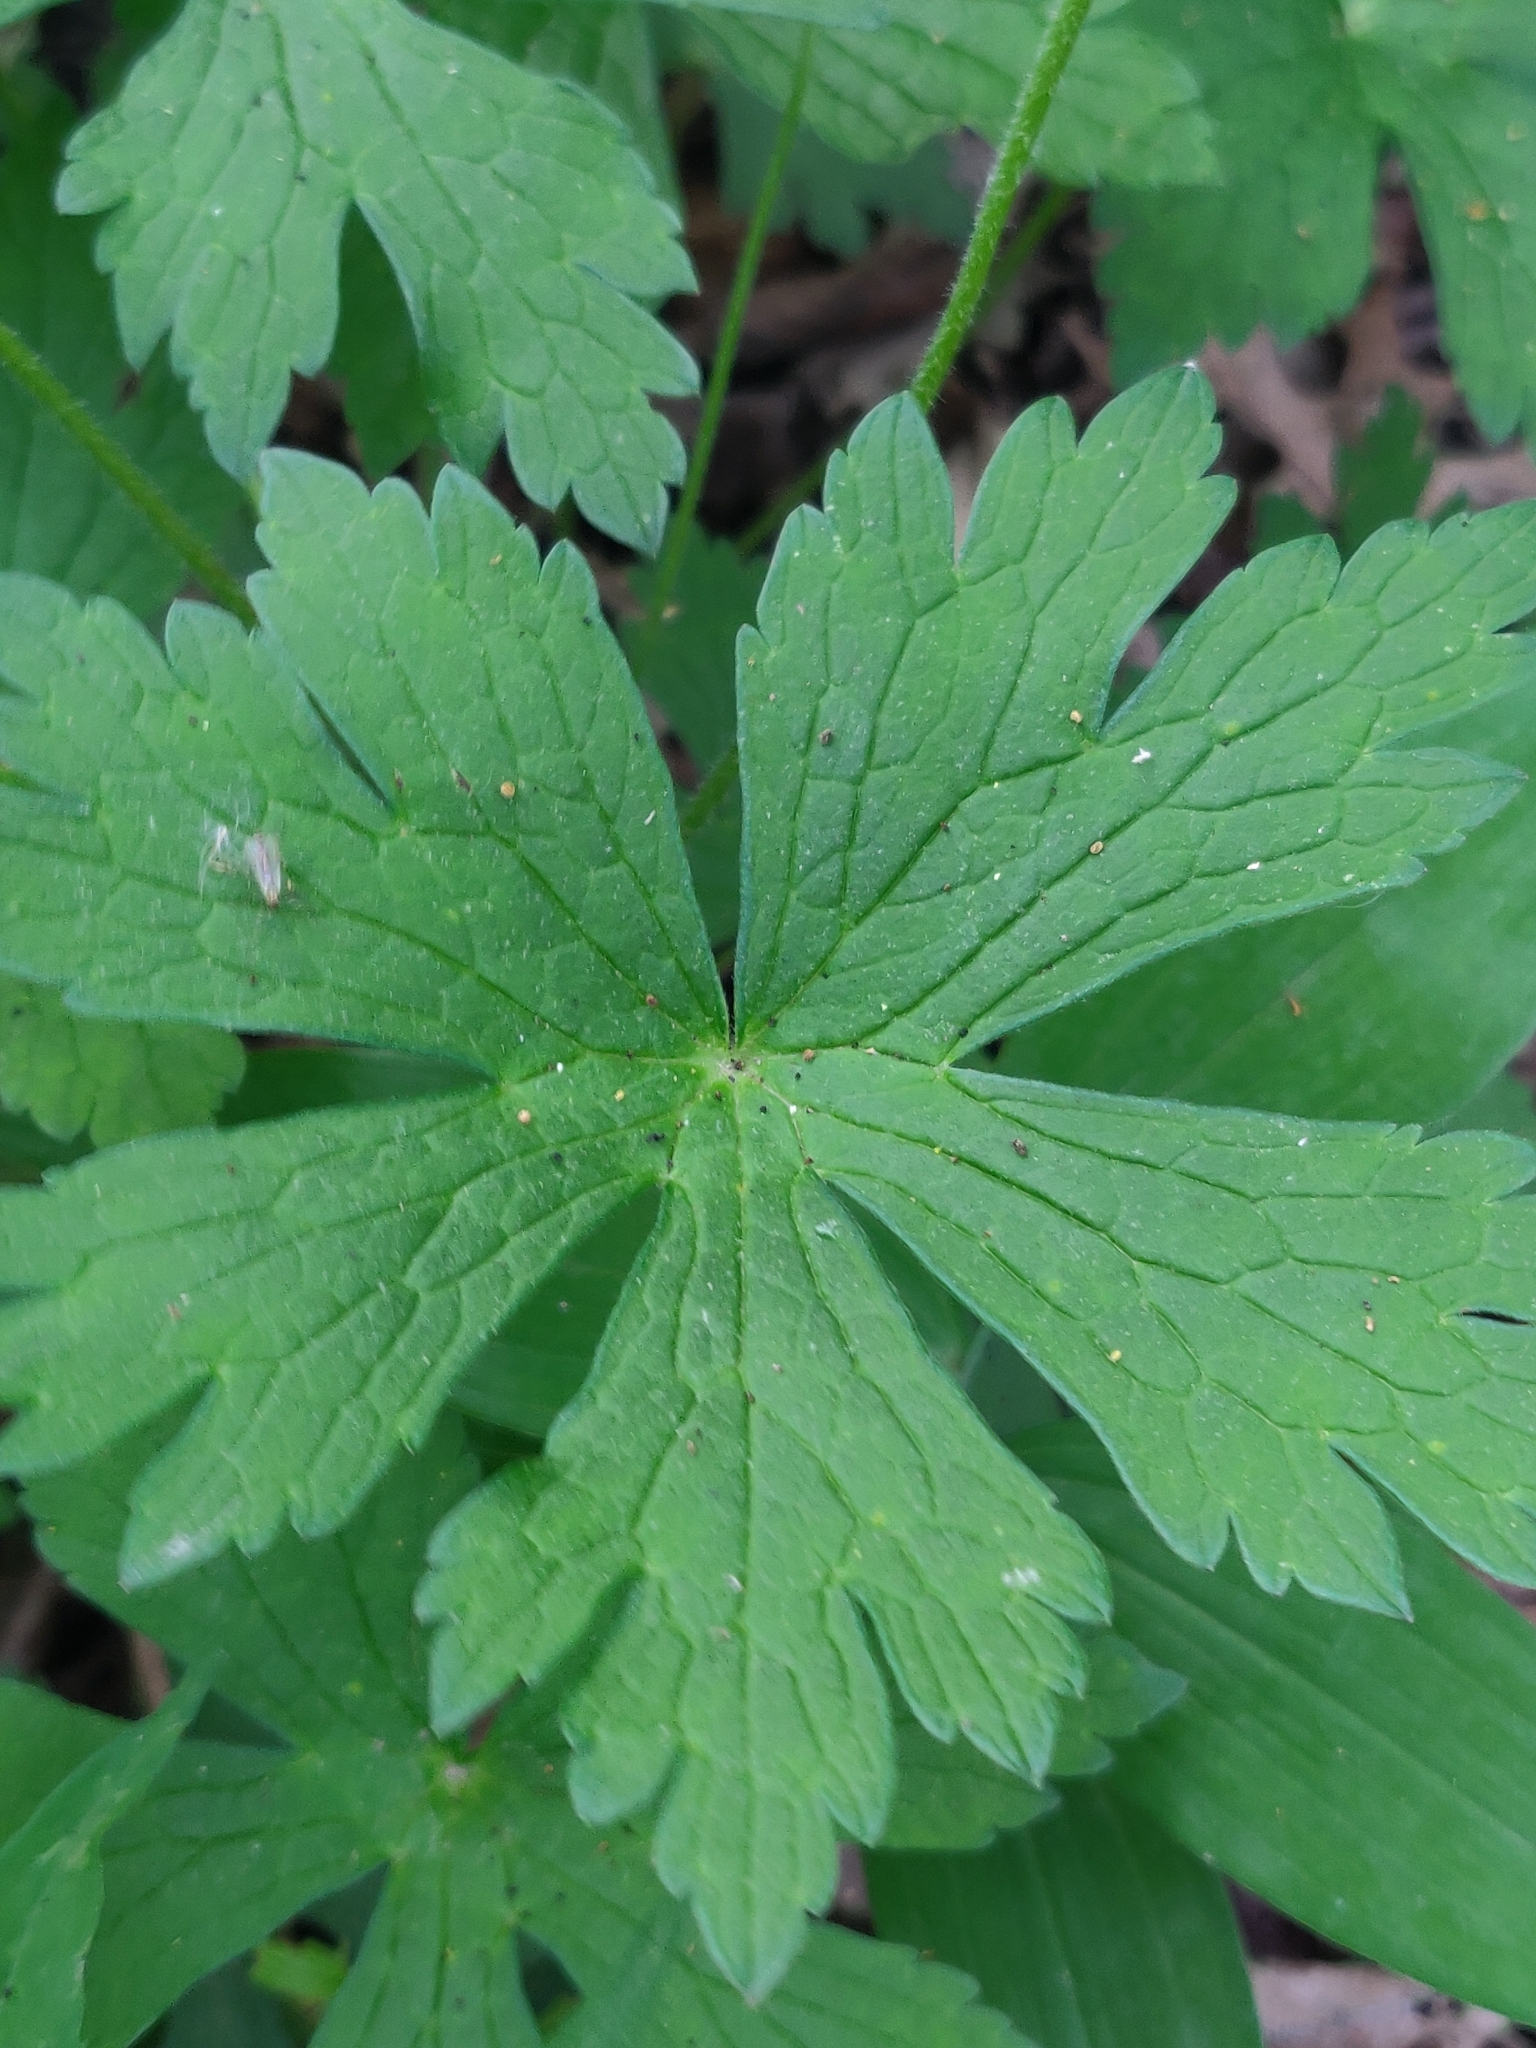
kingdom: Plantae
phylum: Tracheophyta
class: Magnoliopsida
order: Geraniales
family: Geraniaceae
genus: Geranium
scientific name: Geranium maculatum
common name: Spotted geranium
